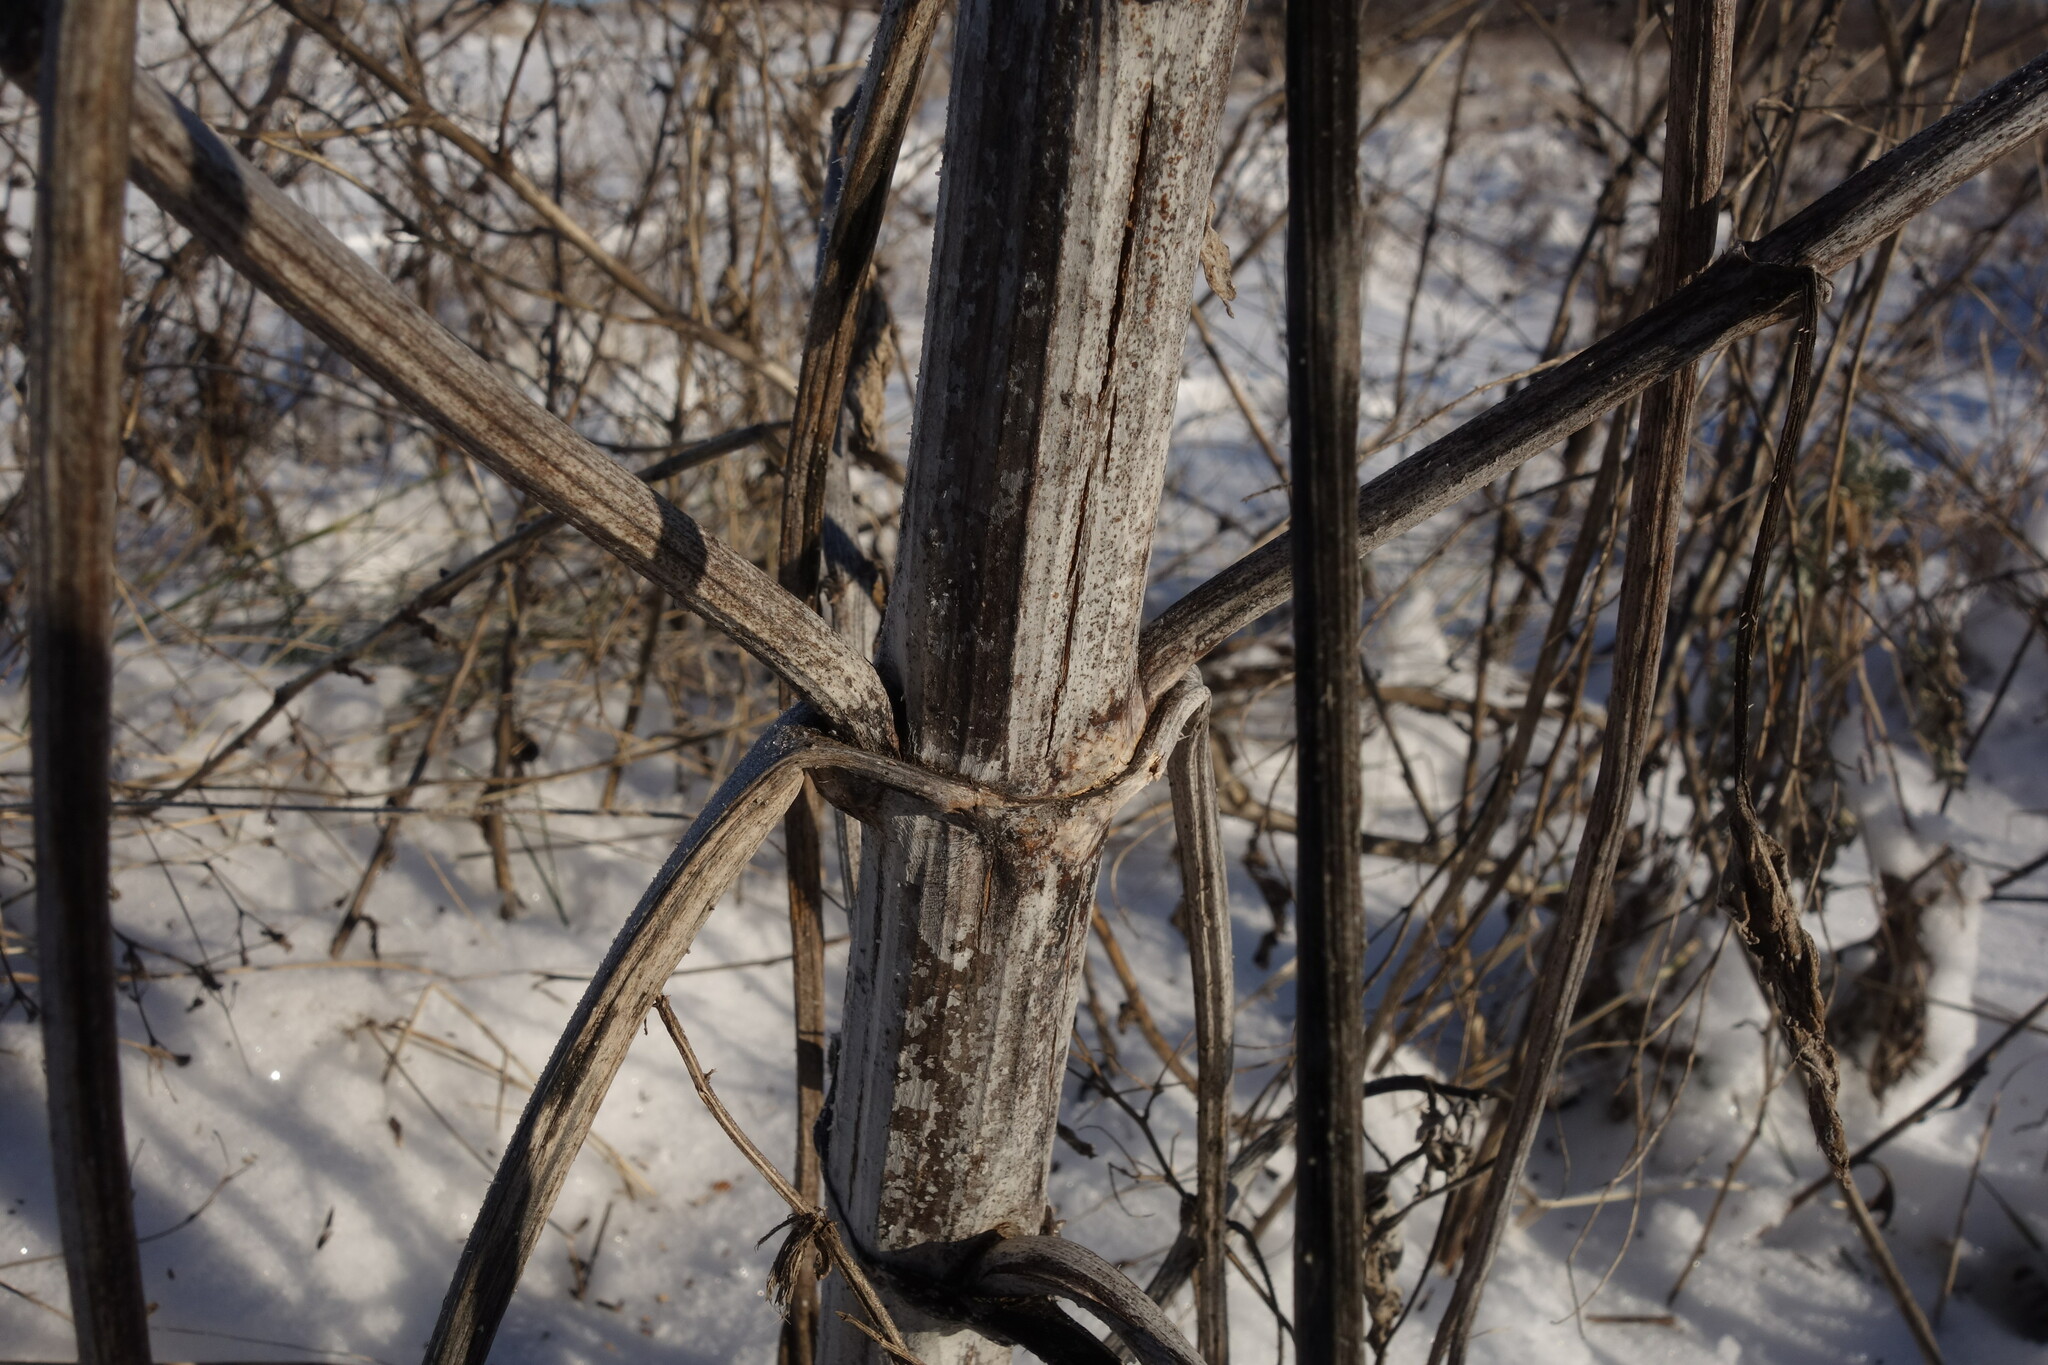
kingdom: Plantae
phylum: Tracheophyta
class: Magnoliopsida
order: Asterales
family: Asteraceae
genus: Cyclachaena
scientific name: Cyclachaena xanthiifolia
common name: Giant sumpweed
